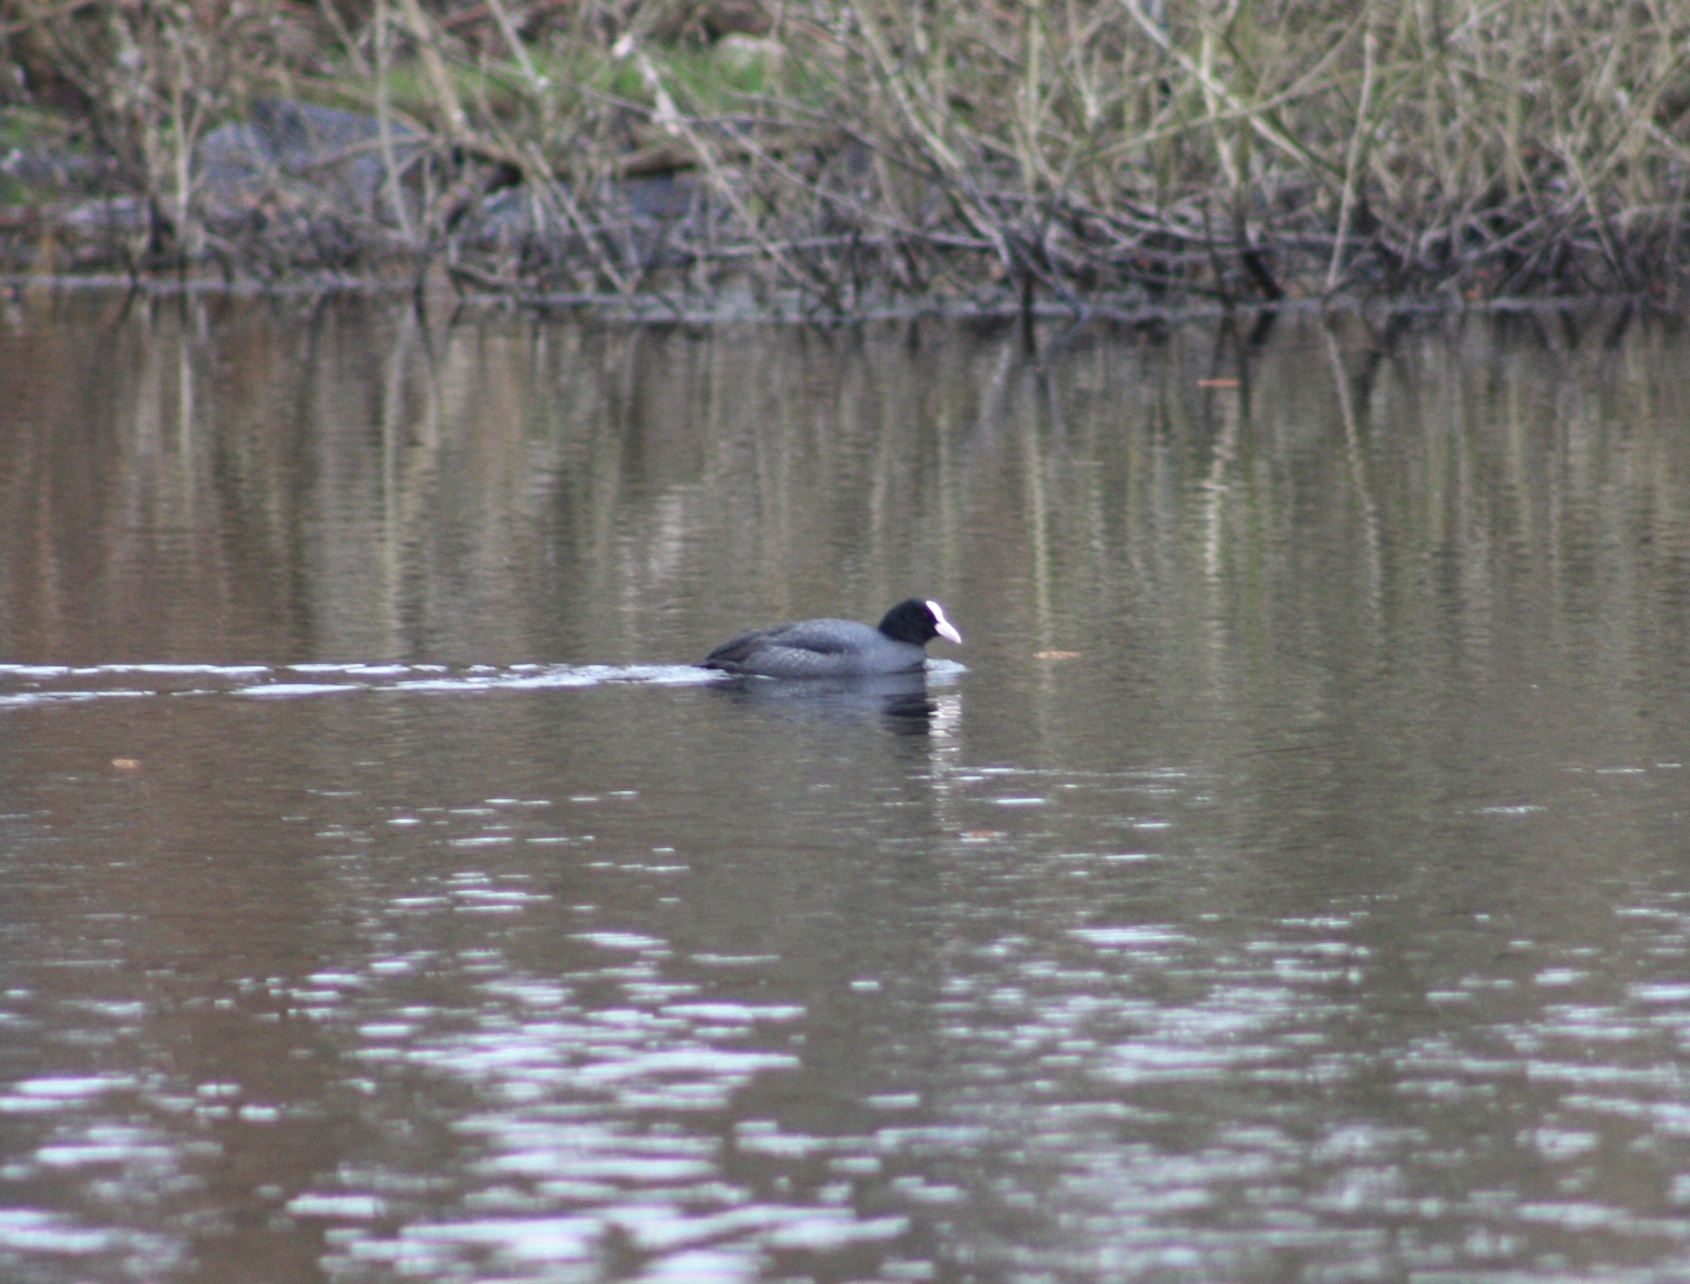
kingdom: Animalia
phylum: Chordata
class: Aves
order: Gruiformes
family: Rallidae
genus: Fulica
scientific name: Fulica atra
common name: Eurasian coot
